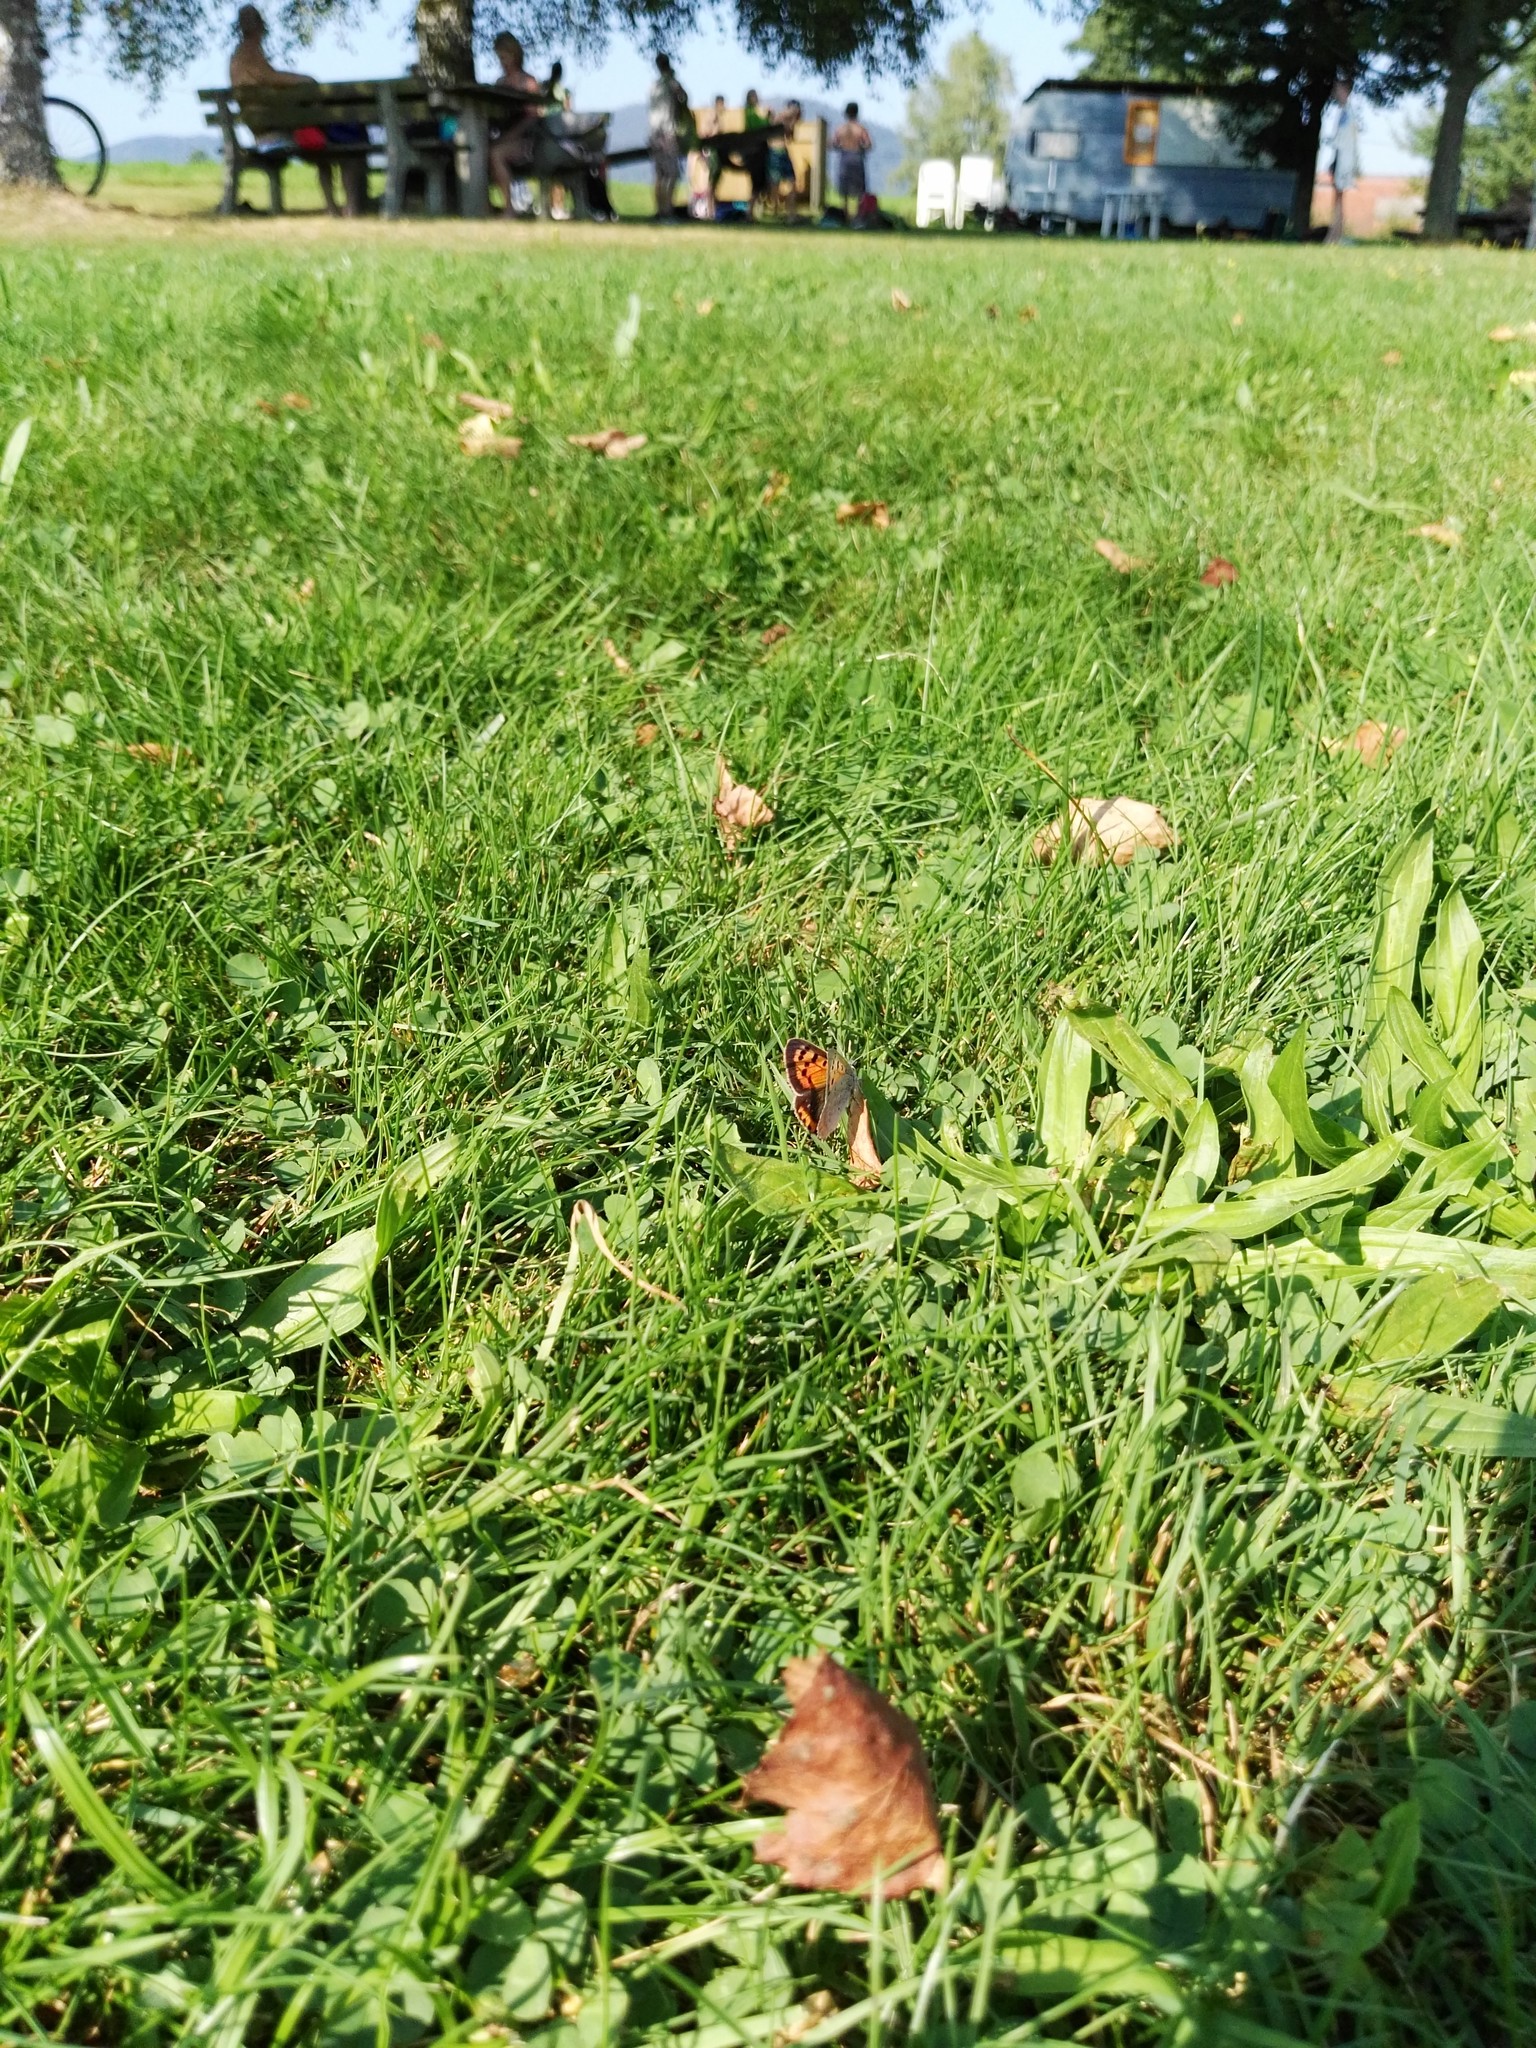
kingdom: Animalia
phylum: Arthropoda
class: Insecta
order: Lepidoptera
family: Lycaenidae
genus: Lycaena
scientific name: Lycaena phlaeas
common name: Small copper
